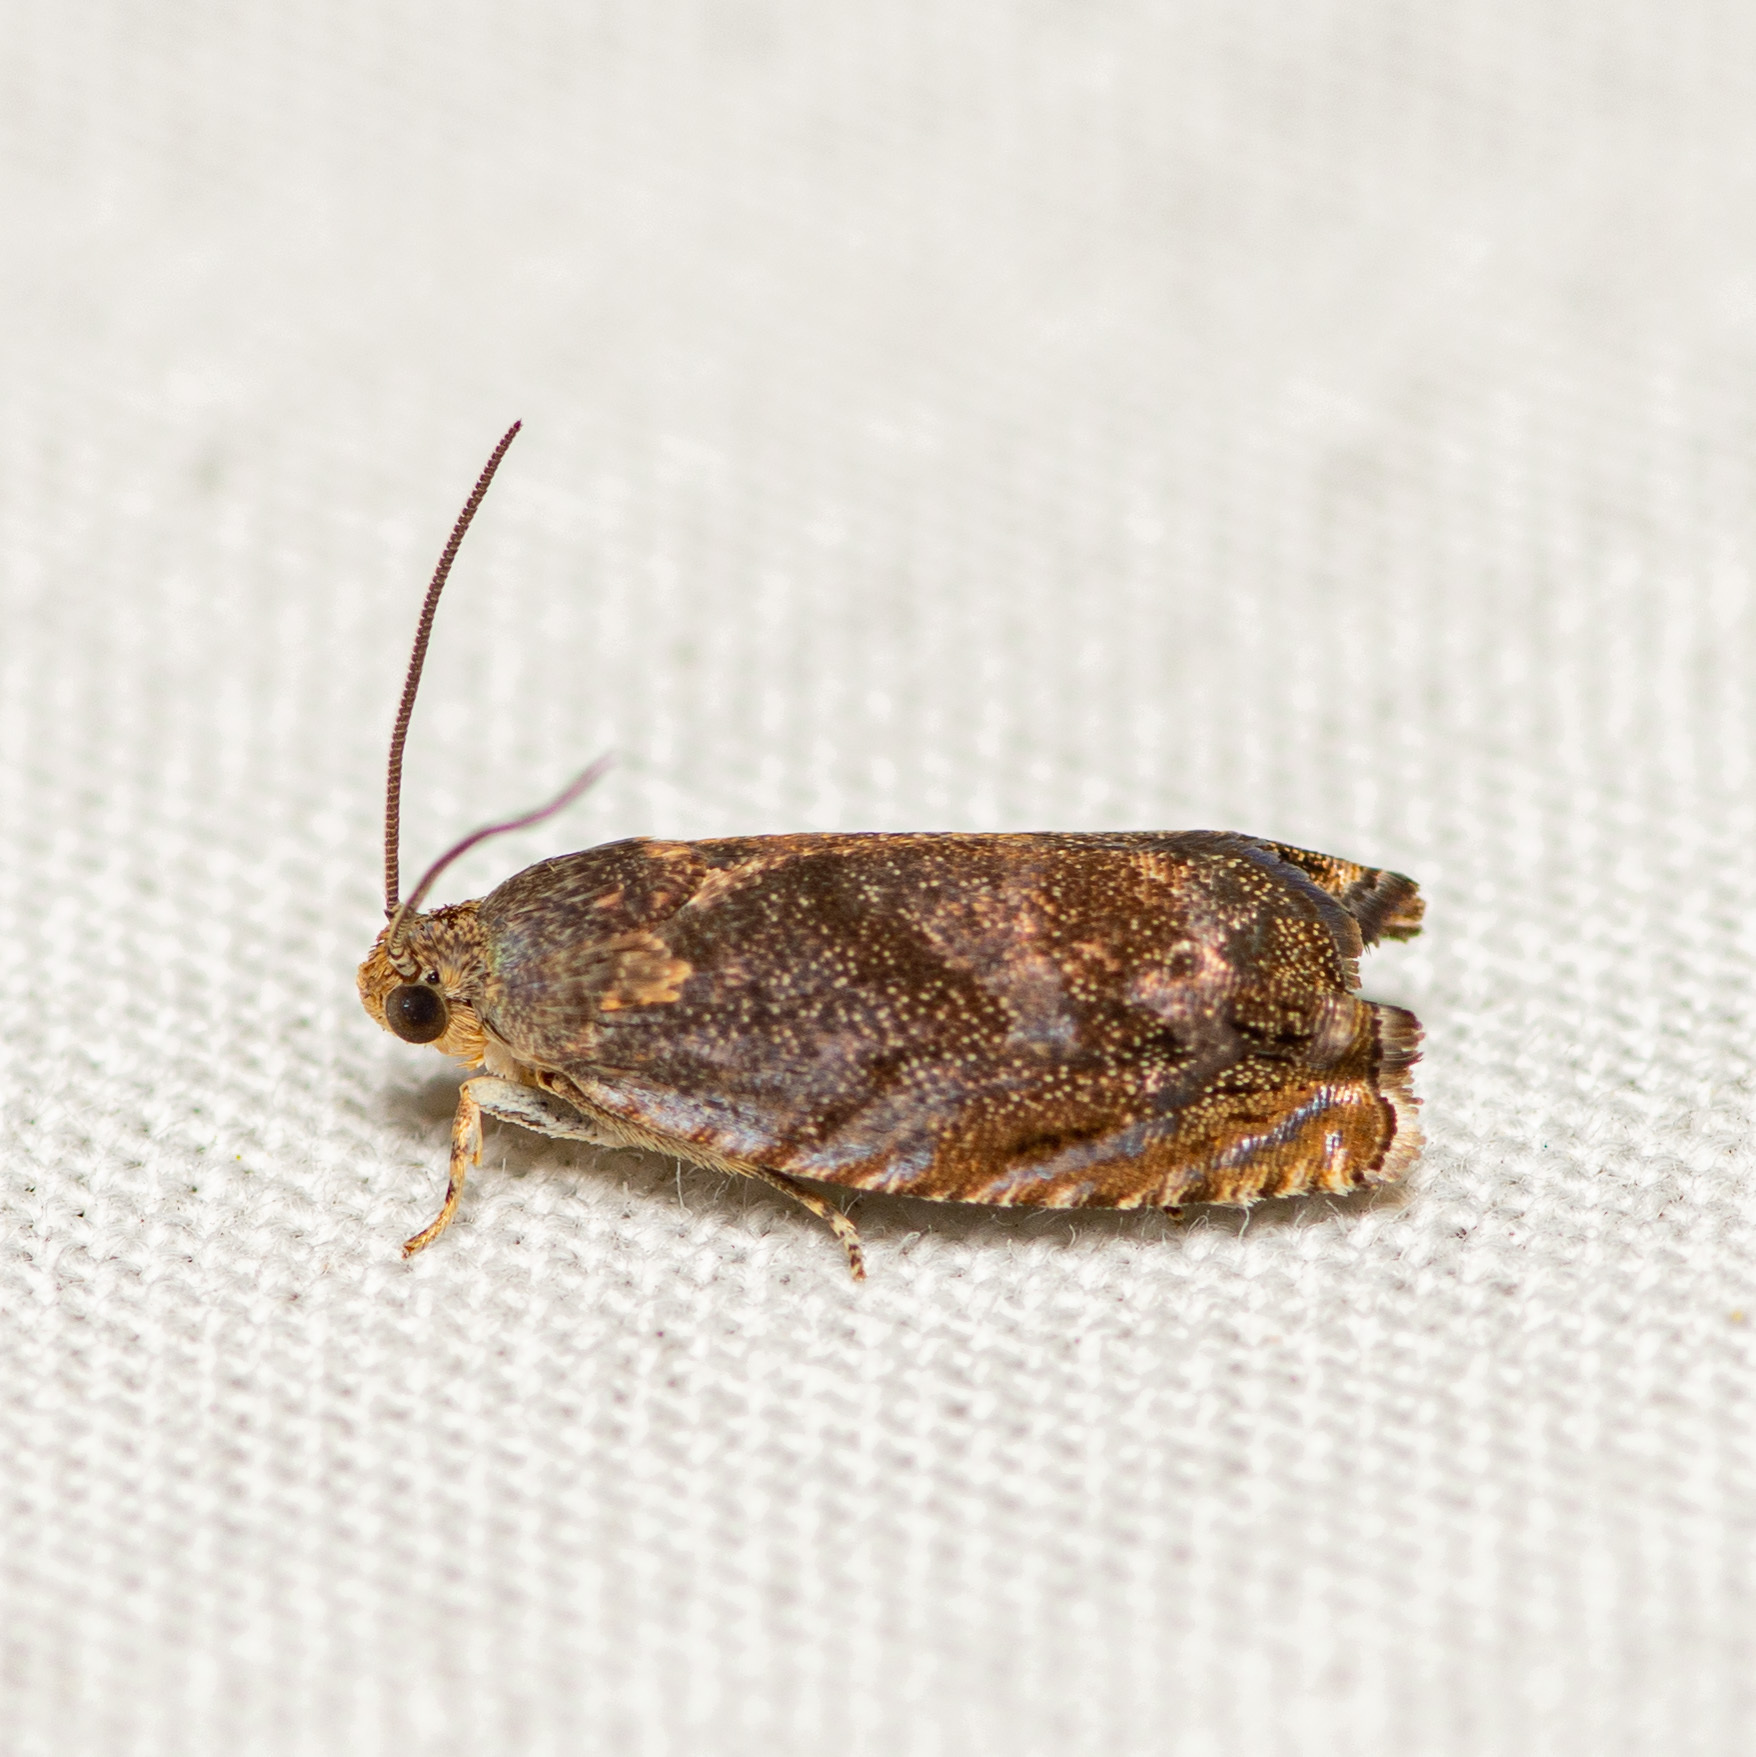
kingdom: Animalia
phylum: Arthropoda
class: Insecta
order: Lepidoptera
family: Tortricidae
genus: Cydia
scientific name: Cydia caryana
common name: Hickory shuckworm moth
